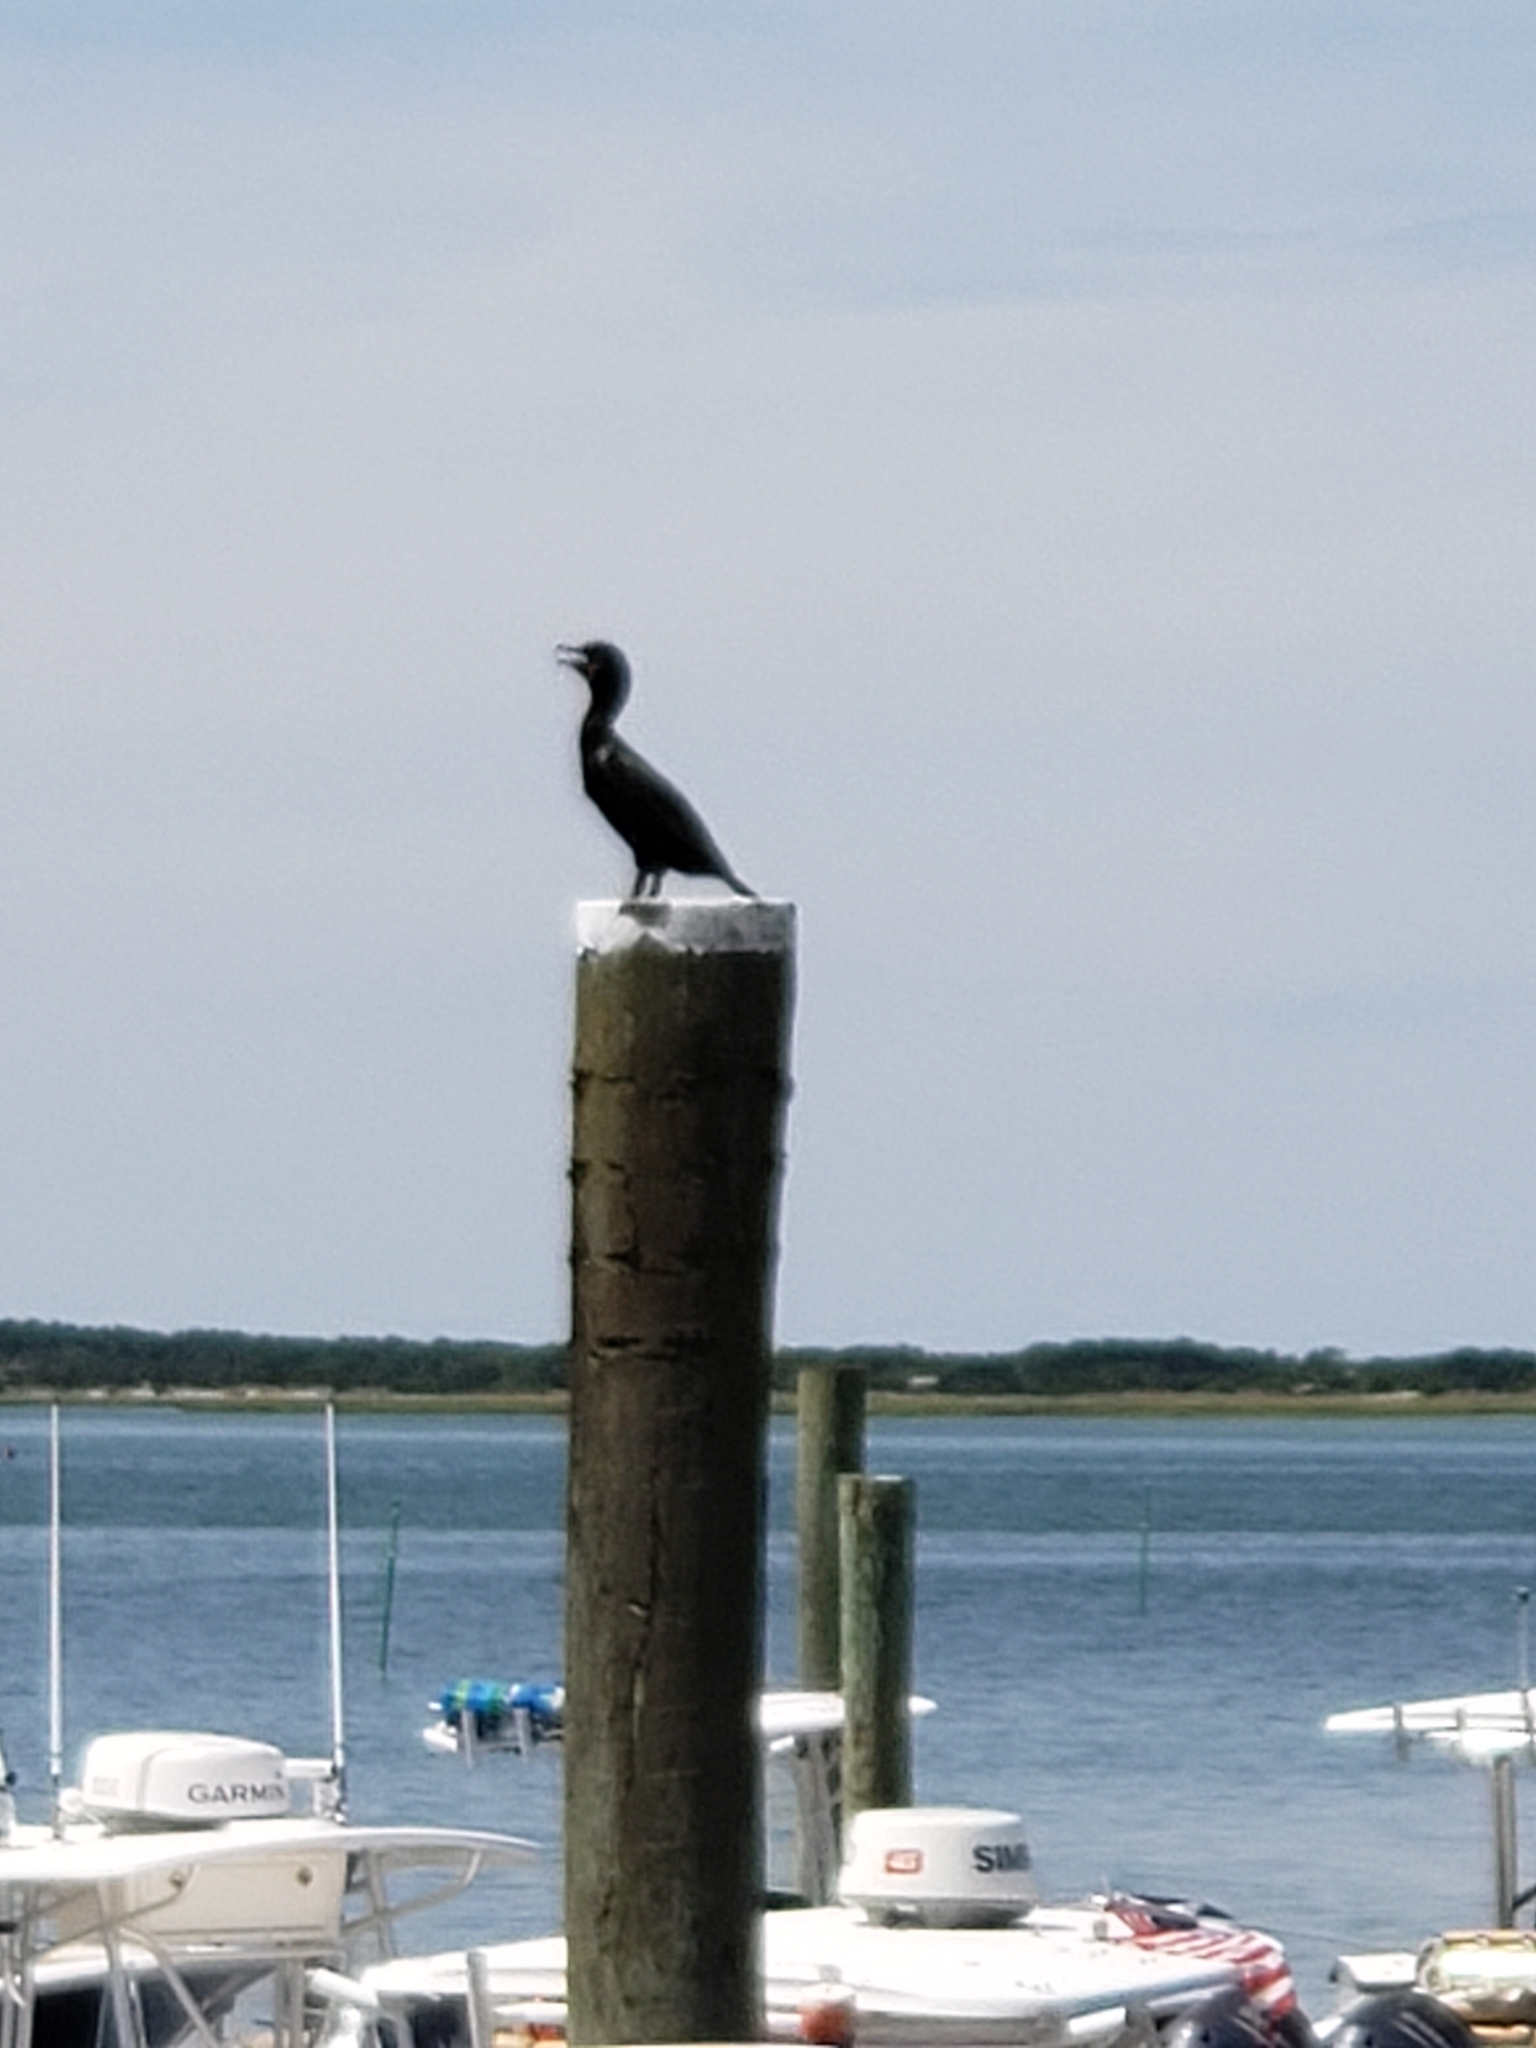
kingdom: Animalia
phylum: Chordata
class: Aves
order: Suliformes
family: Phalacrocoracidae
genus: Phalacrocorax
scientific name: Phalacrocorax auritus
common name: Double-crested cormorant
